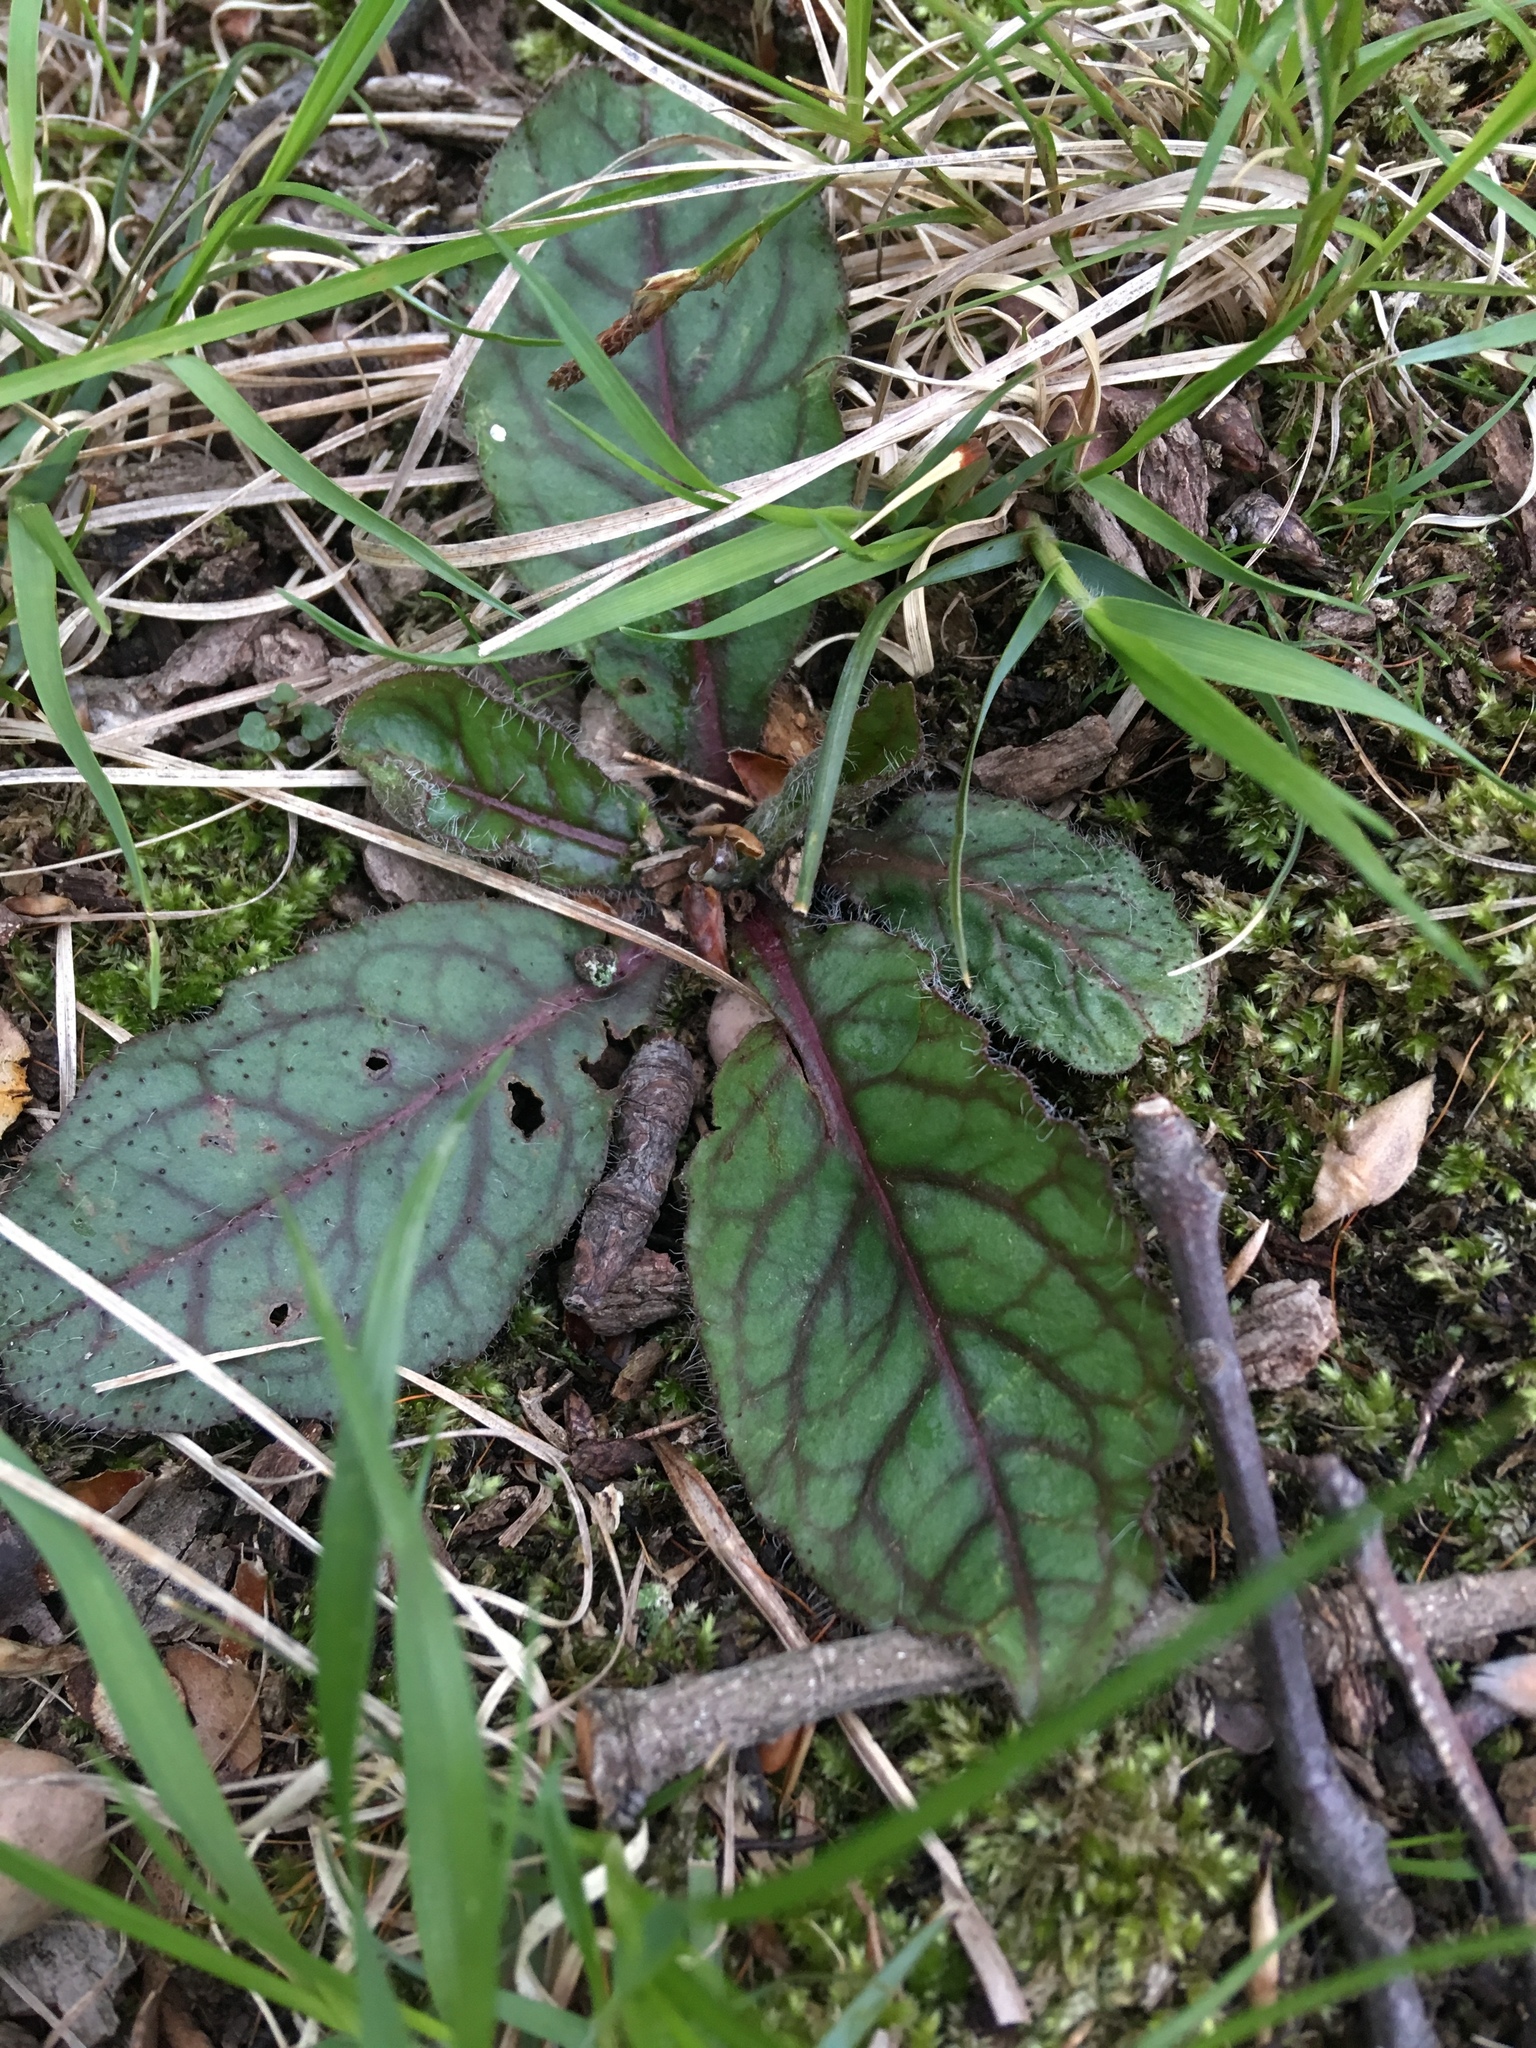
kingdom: Plantae
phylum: Tracheophyta
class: Magnoliopsida
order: Asterales
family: Asteraceae
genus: Hieracium
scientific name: Hieracium venosum
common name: Rattlesnake hawkweed
